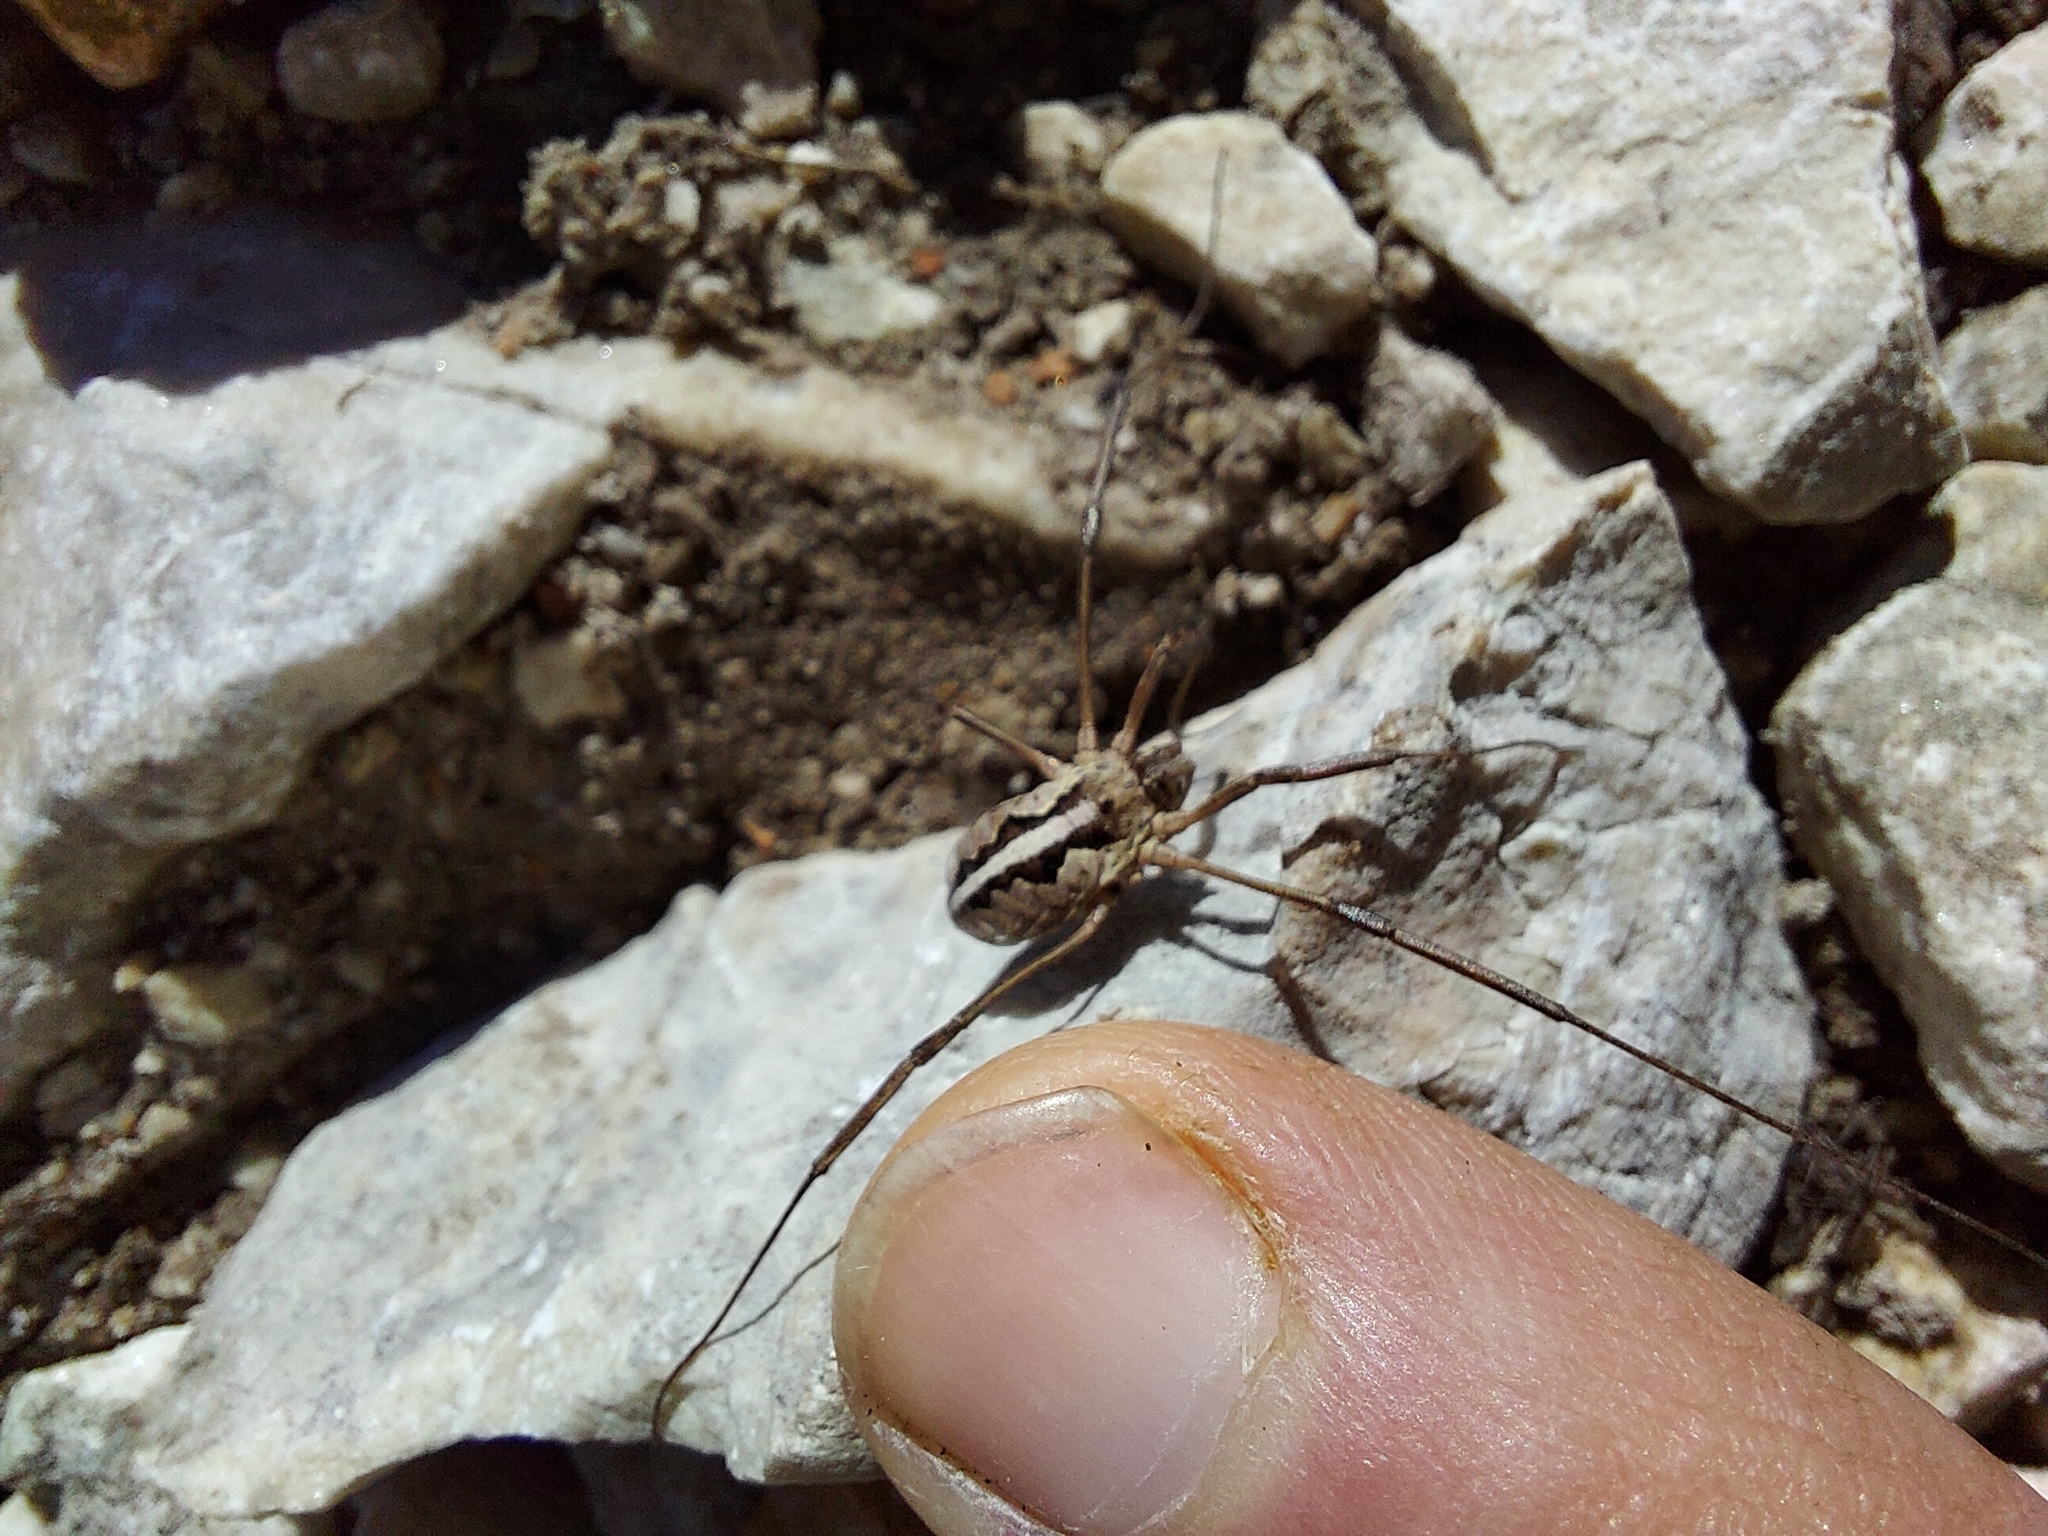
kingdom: Animalia
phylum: Arthropoda
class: Arachnida
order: Opiliones
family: Phalangiidae
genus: Mitopus
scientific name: Mitopus morio
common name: Saddleback harvestman
